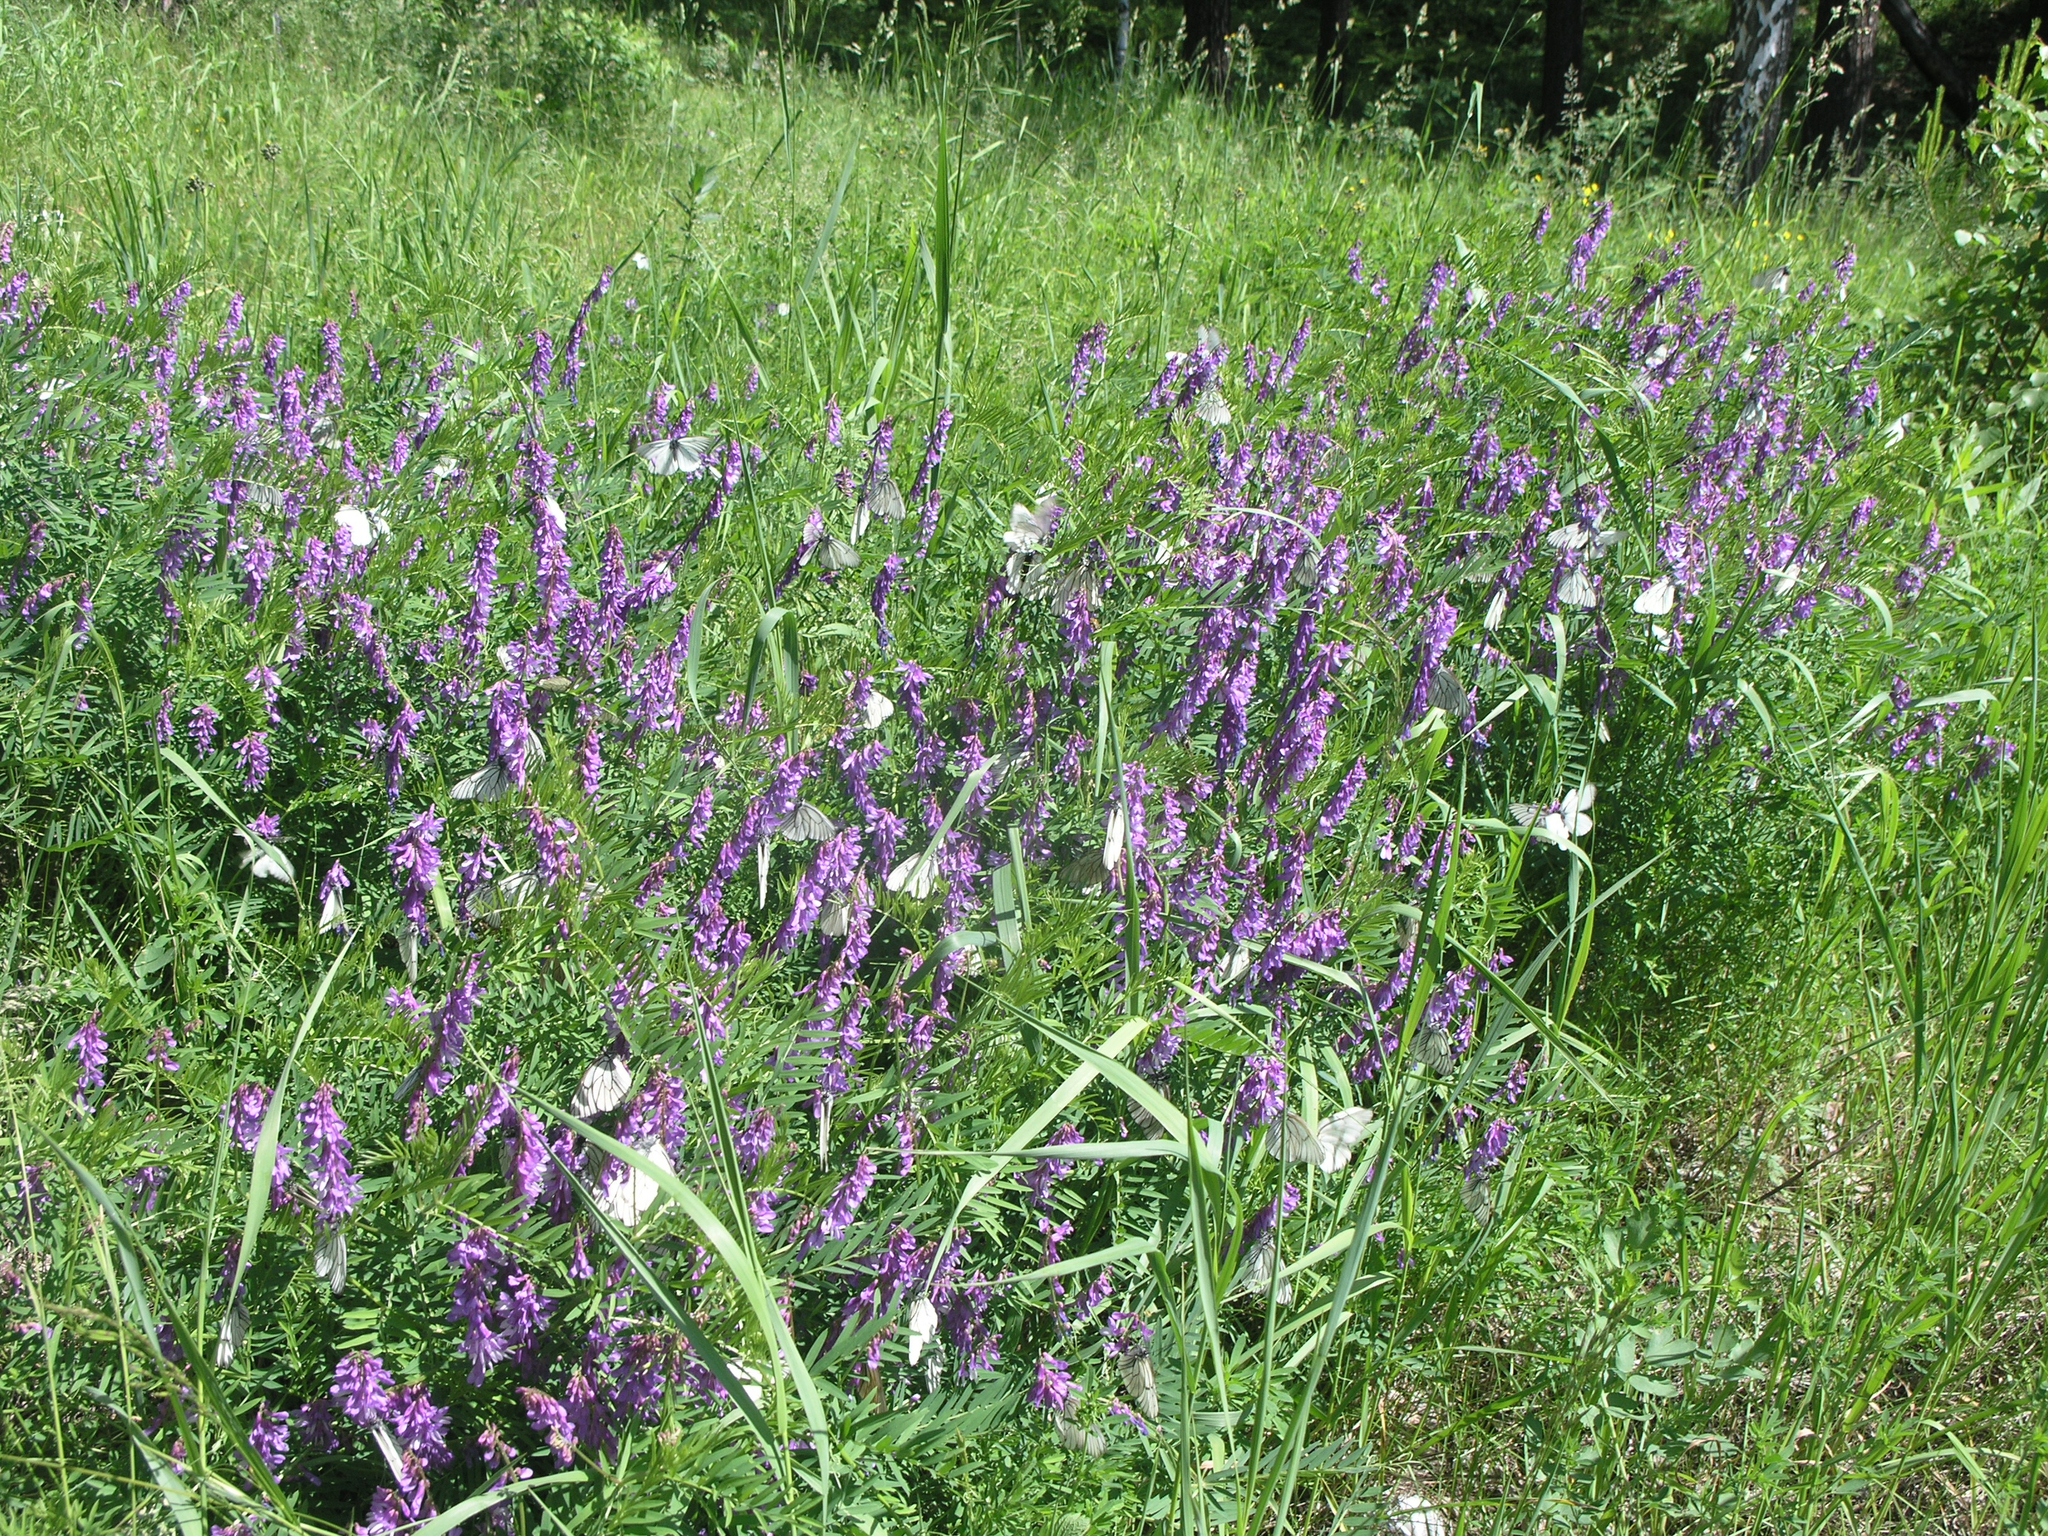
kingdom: Animalia
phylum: Arthropoda
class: Insecta
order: Lepidoptera
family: Pieridae
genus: Aporia
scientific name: Aporia crataegi
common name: Black-veined white
